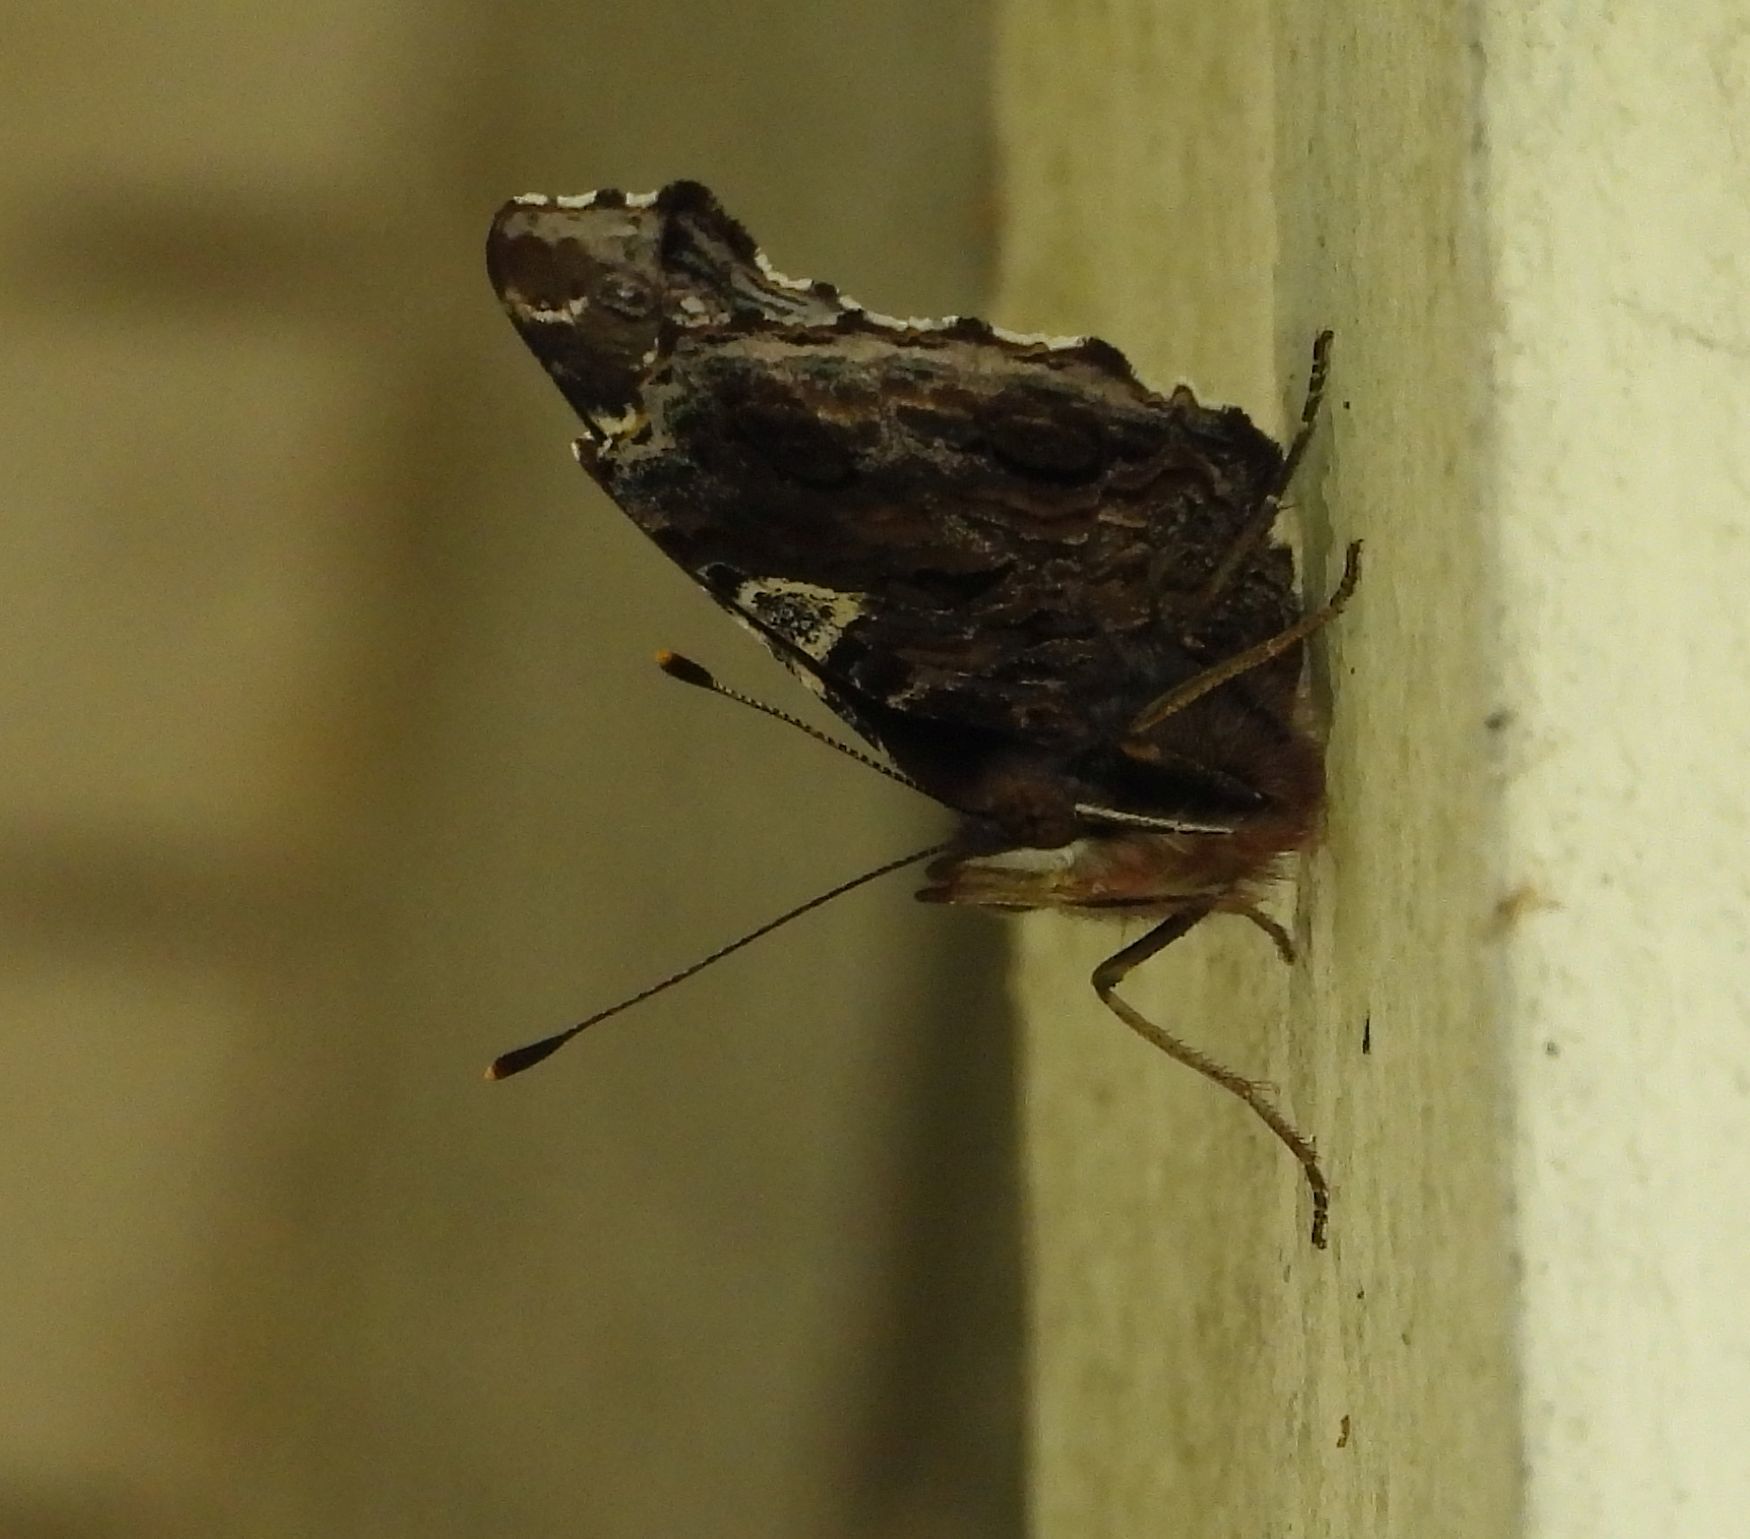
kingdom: Animalia
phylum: Arthropoda
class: Insecta
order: Lepidoptera
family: Nymphalidae
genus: Vanessa
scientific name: Vanessa atalanta
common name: Red admiral
